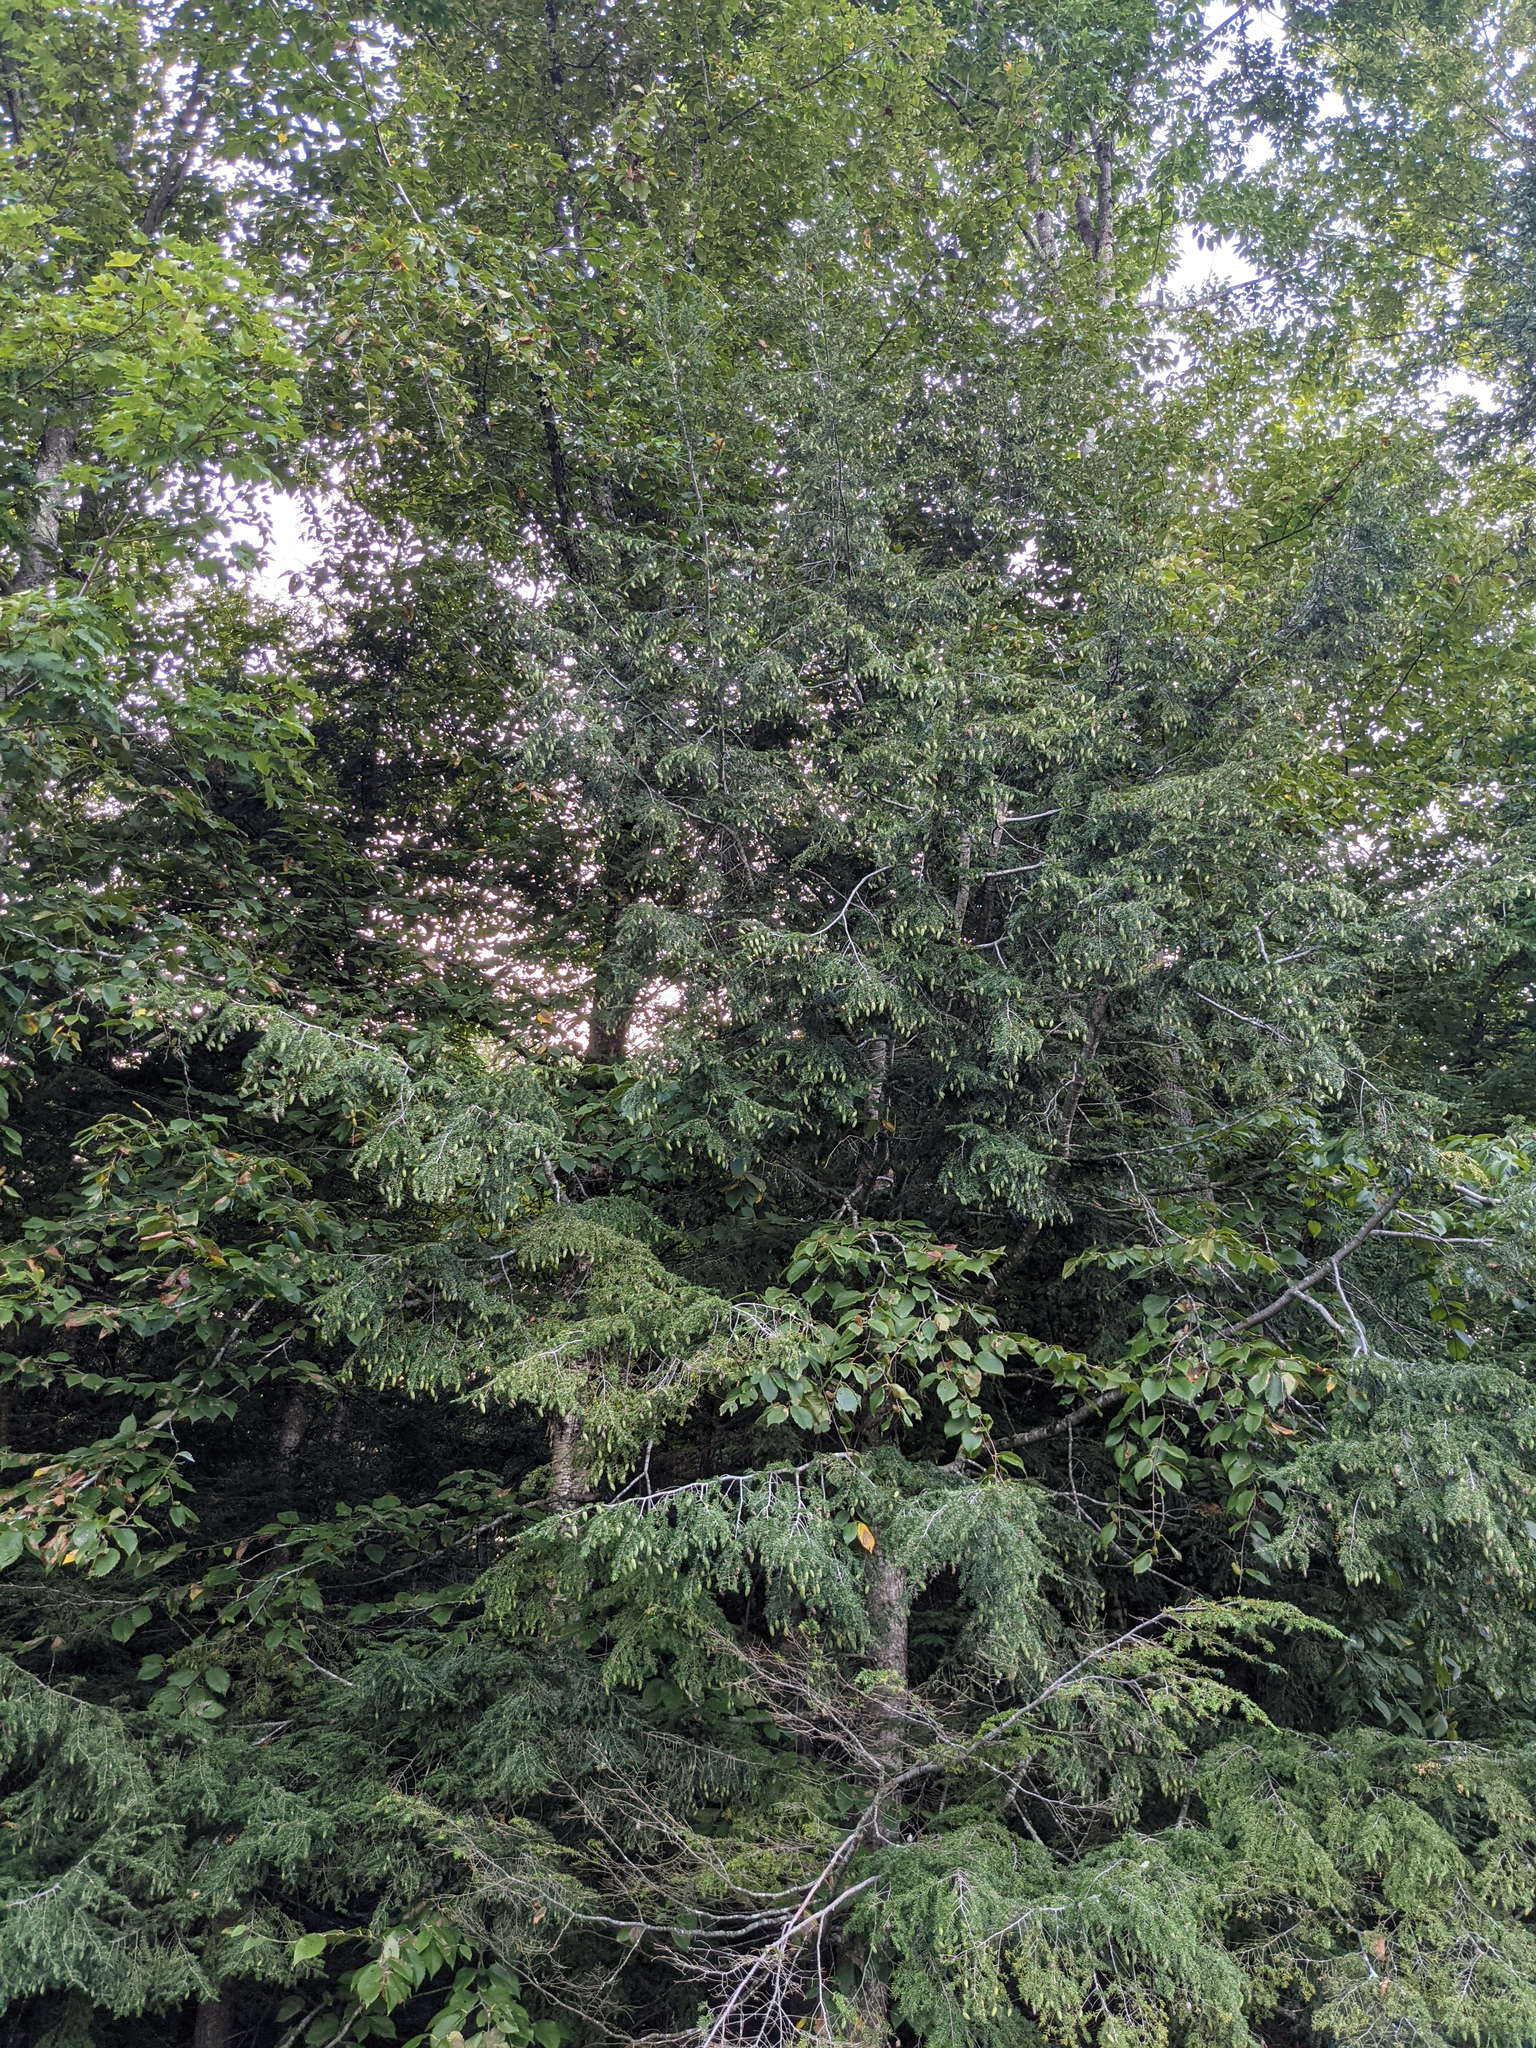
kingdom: Plantae
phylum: Tracheophyta
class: Pinopsida
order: Pinales
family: Pinaceae
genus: Tsuga
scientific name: Tsuga canadensis
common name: Eastern hemlock
